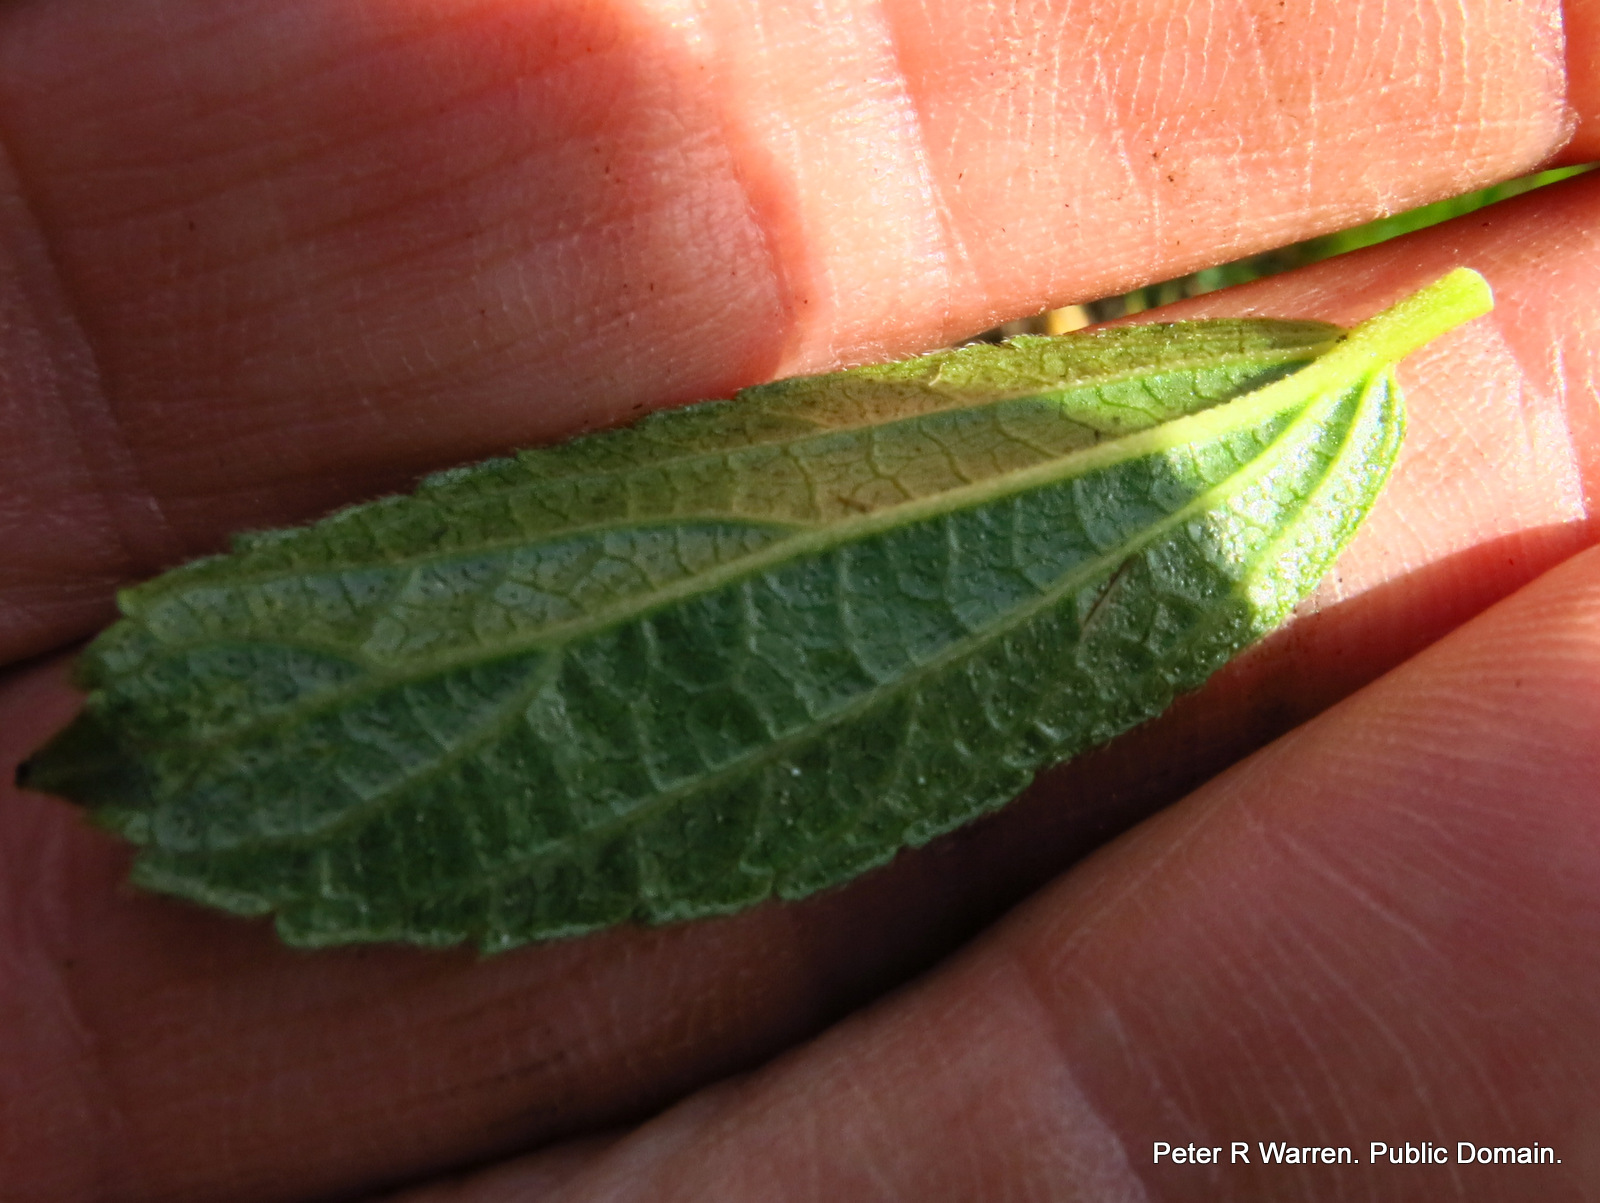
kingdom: Plantae
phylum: Tracheophyta
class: Magnoliopsida
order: Malpighiales
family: Euphorbiaceae
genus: Acalypha
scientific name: Acalypha glandulifolia
